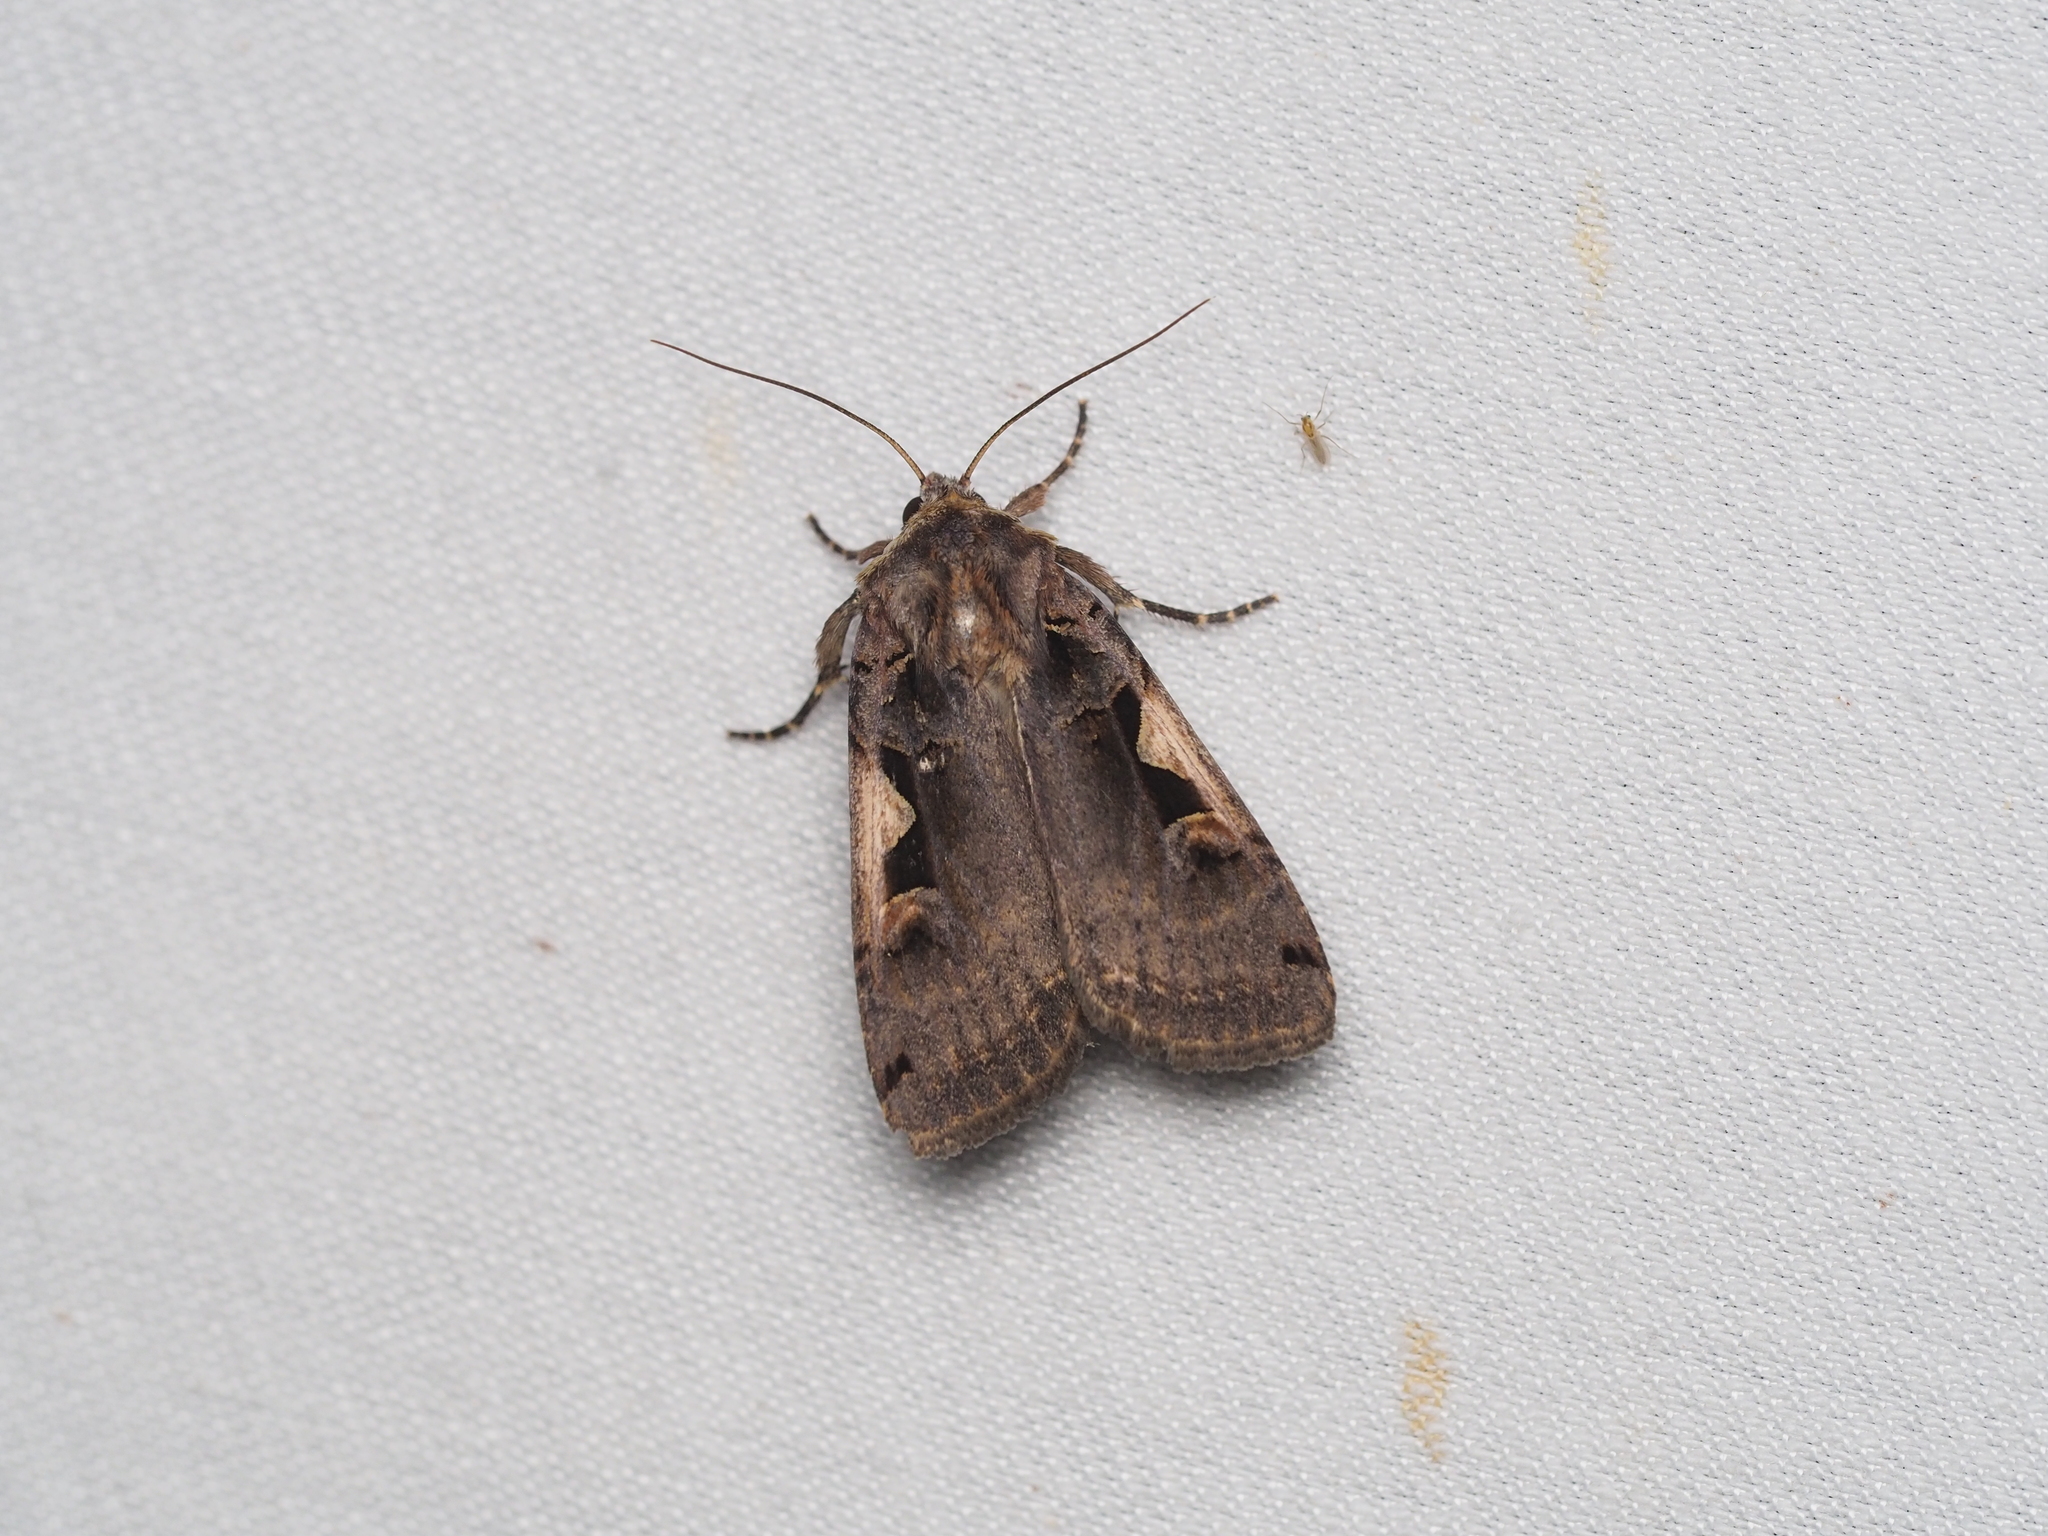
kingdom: Animalia
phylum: Arthropoda
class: Insecta
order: Lepidoptera
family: Noctuidae
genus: Xestia
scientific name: Xestia c-nigrum
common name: Setaceous hebrew character
